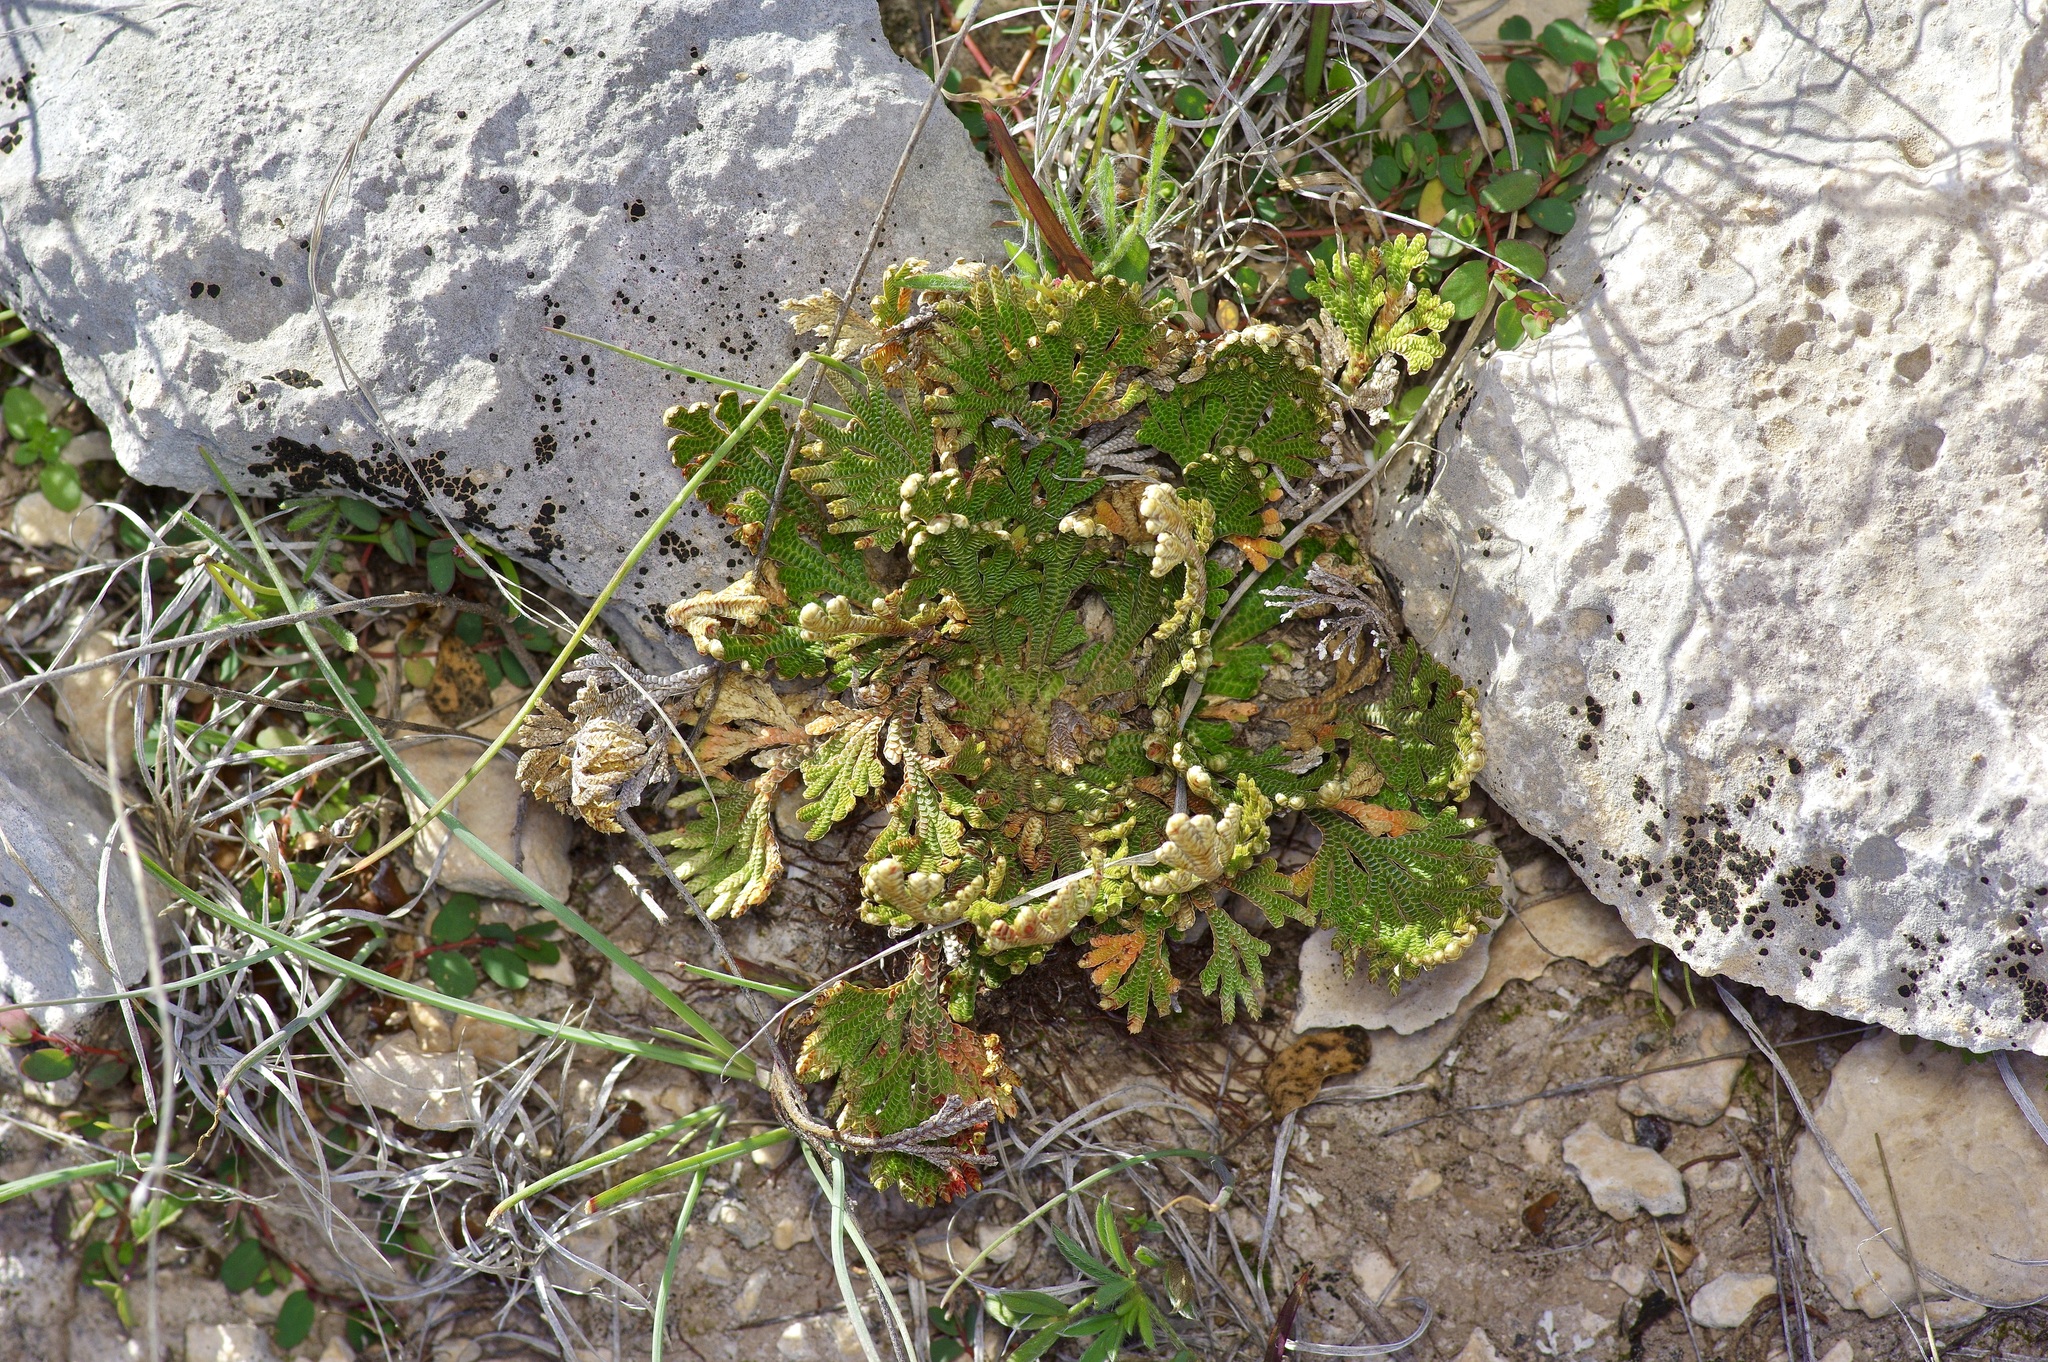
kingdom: Plantae
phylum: Tracheophyta
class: Lycopodiopsida
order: Selaginellales
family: Selaginellaceae
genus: Selaginella
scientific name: Selaginella lepidophylla
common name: Rose-of-jericho
